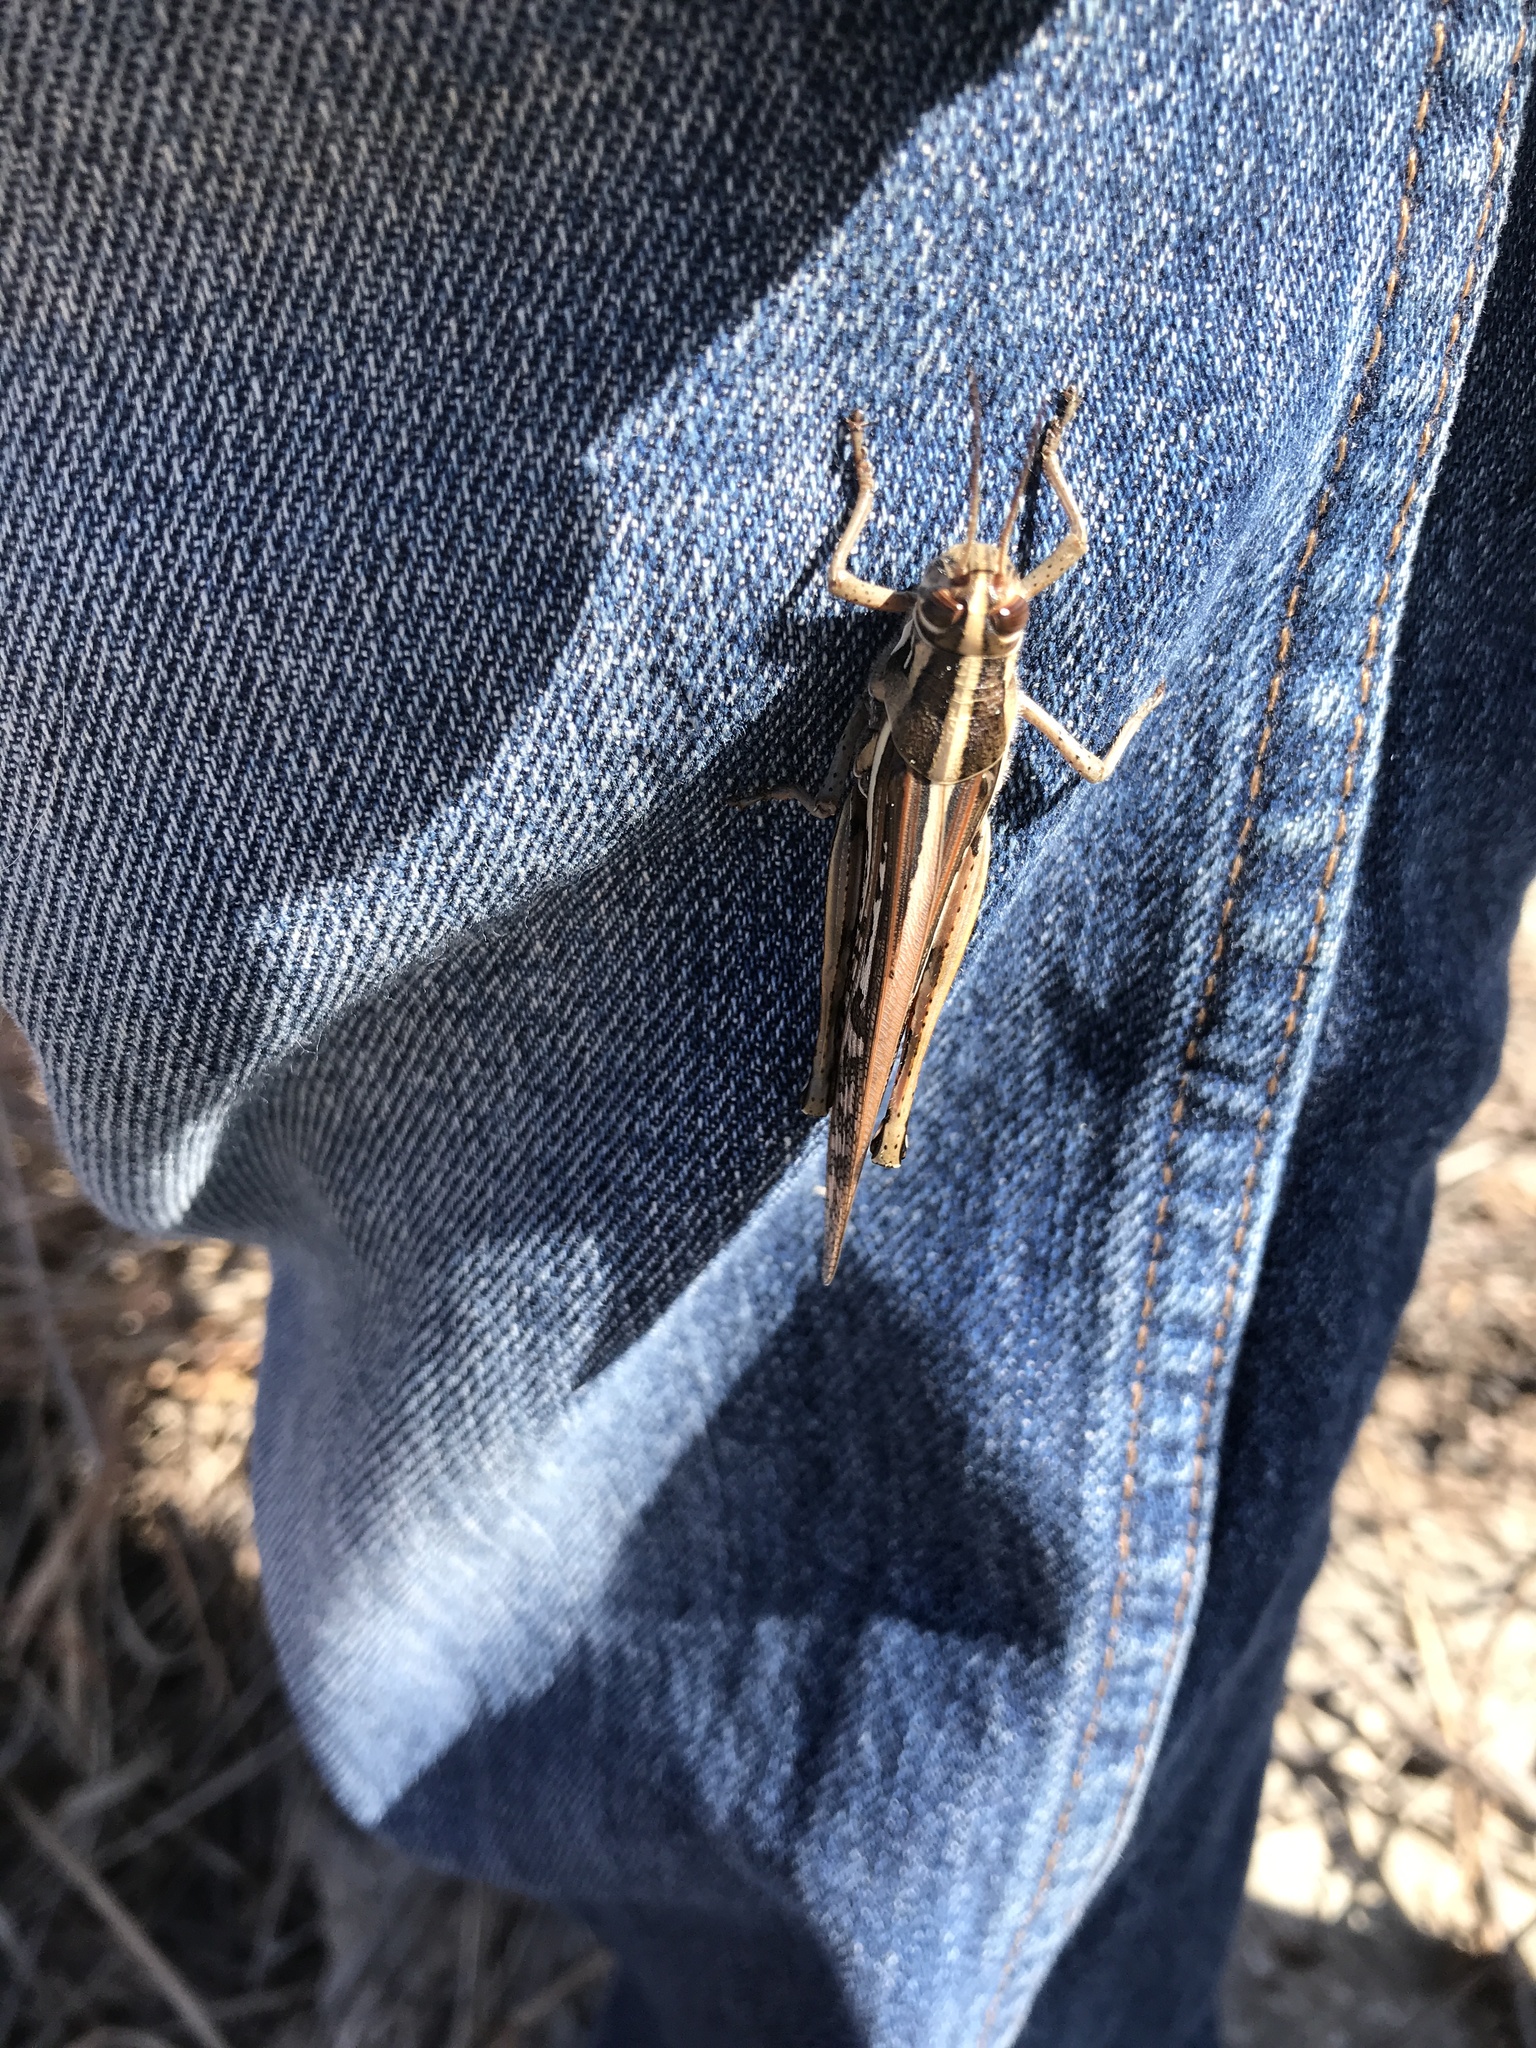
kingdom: Animalia
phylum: Arthropoda
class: Insecta
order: Orthoptera
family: Acrididae
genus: Schistocerca
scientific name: Schistocerca americana
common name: American bird locust
